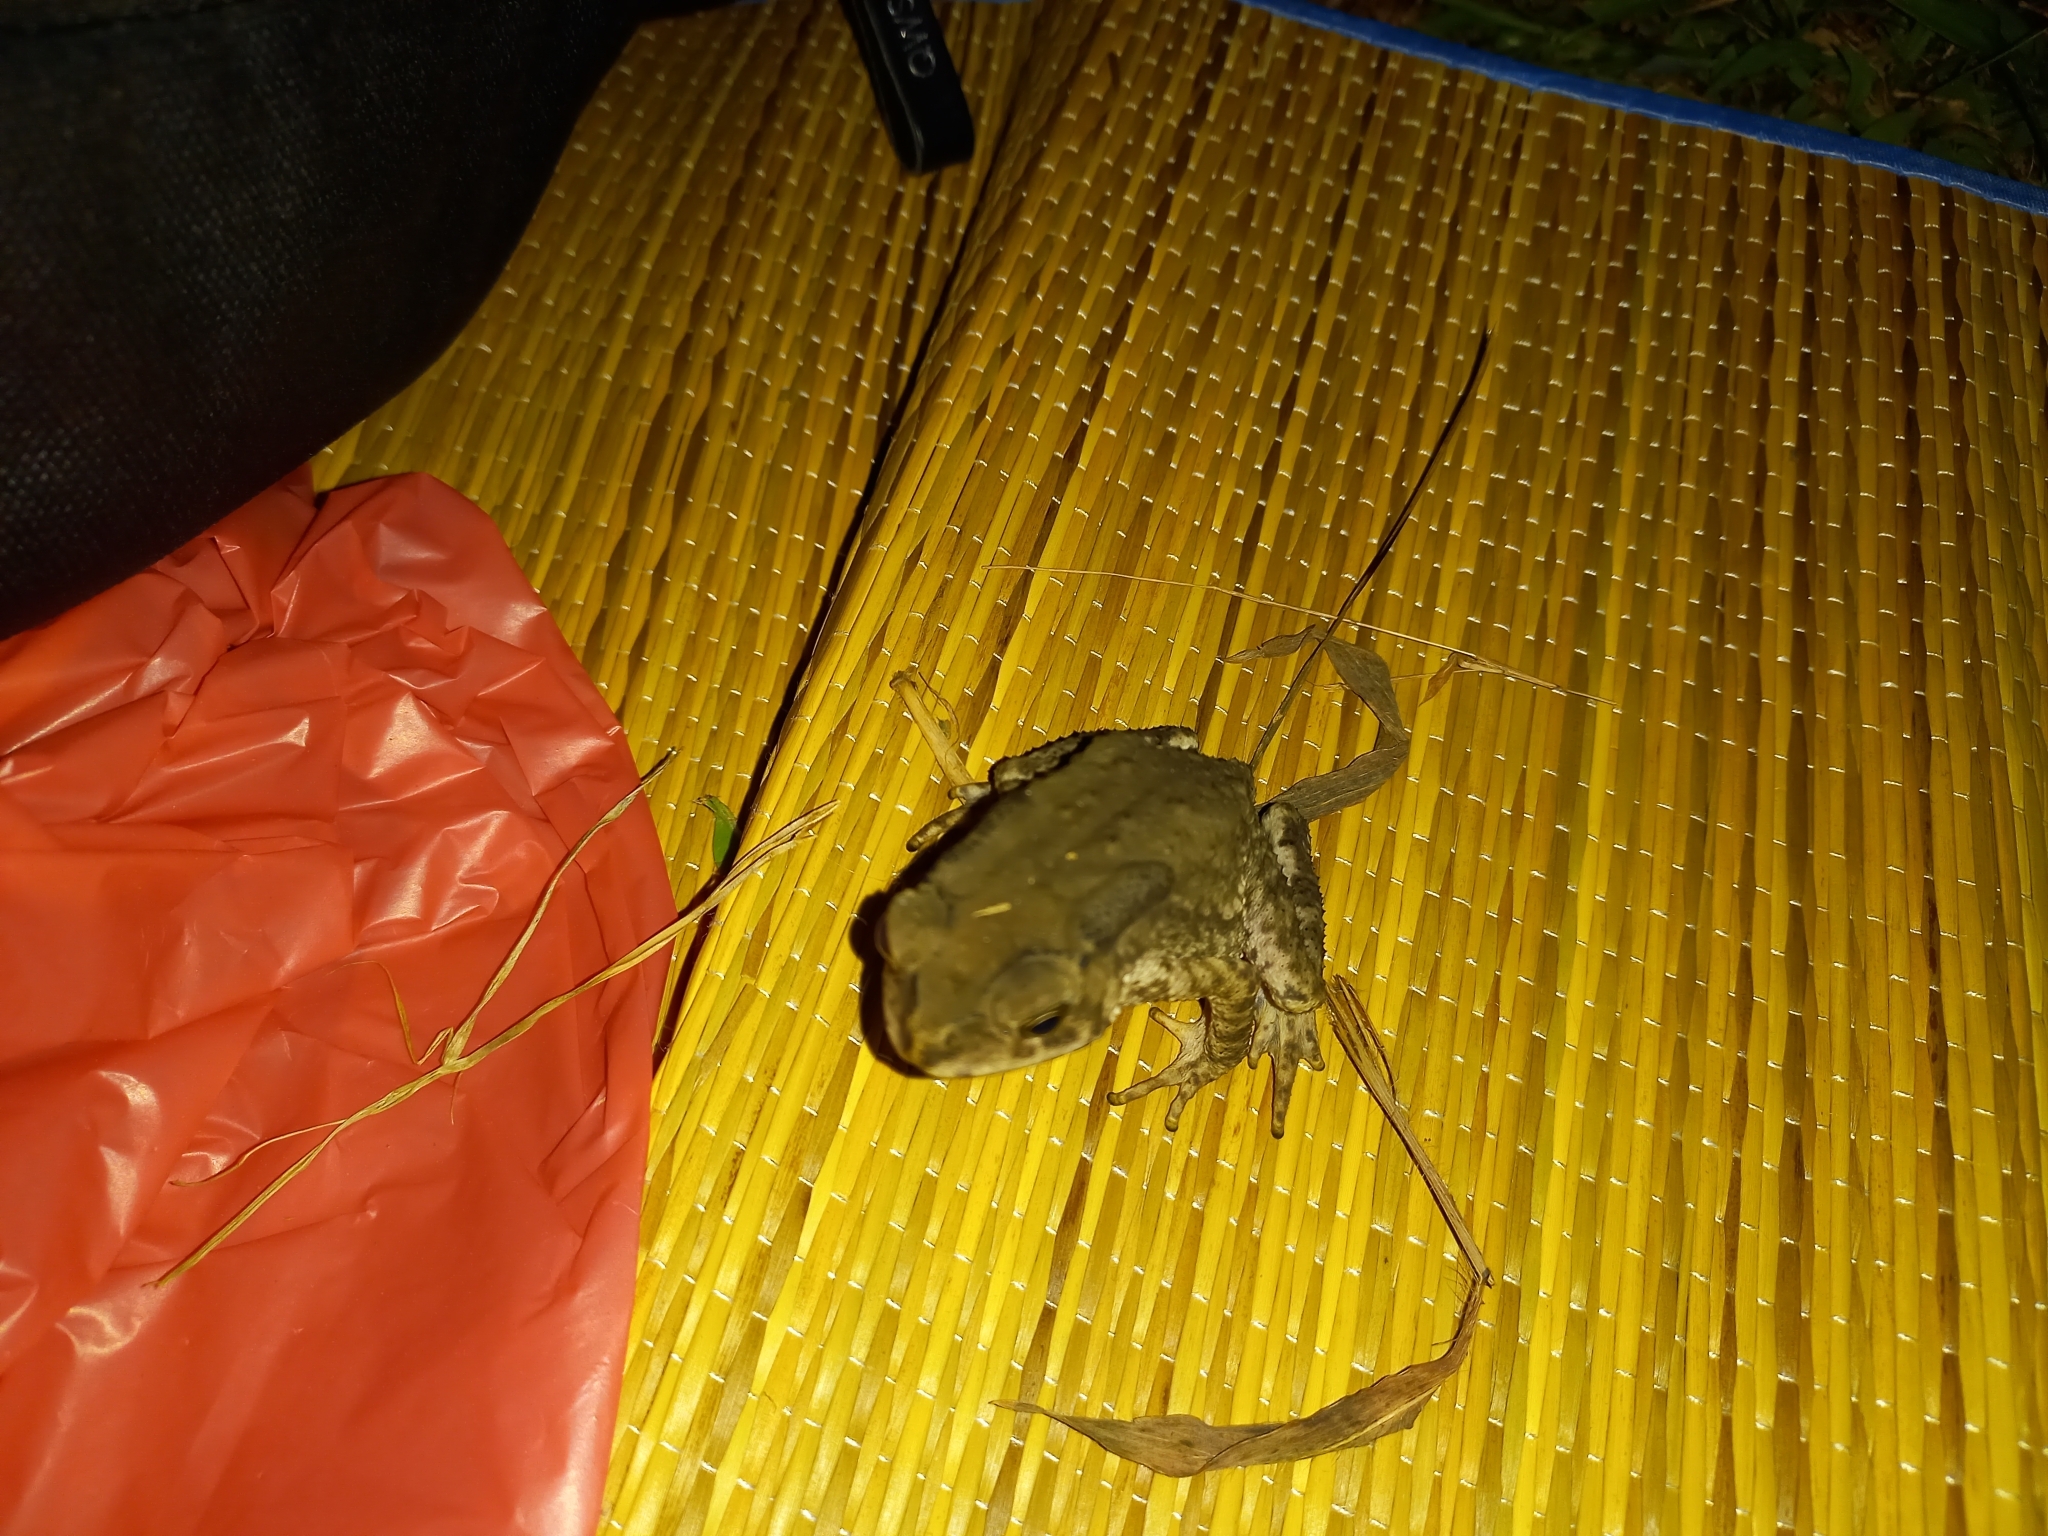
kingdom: Animalia
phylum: Chordata
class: Amphibia
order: Anura
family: Bufonidae
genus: Duttaphrynus
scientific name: Duttaphrynus melanostictus
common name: Common sunda toad
